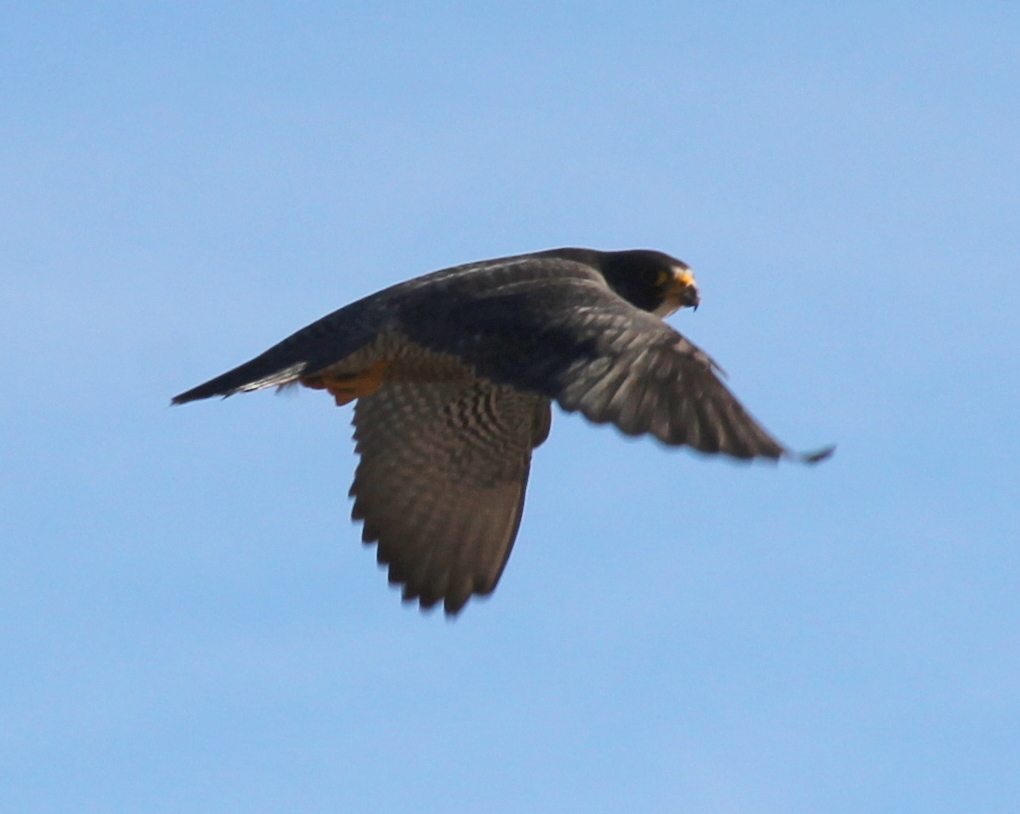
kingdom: Animalia
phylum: Chordata
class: Aves
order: Falconiformes
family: Falconidae
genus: Falco
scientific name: Falco peregrinus
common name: Peregrine falcon
